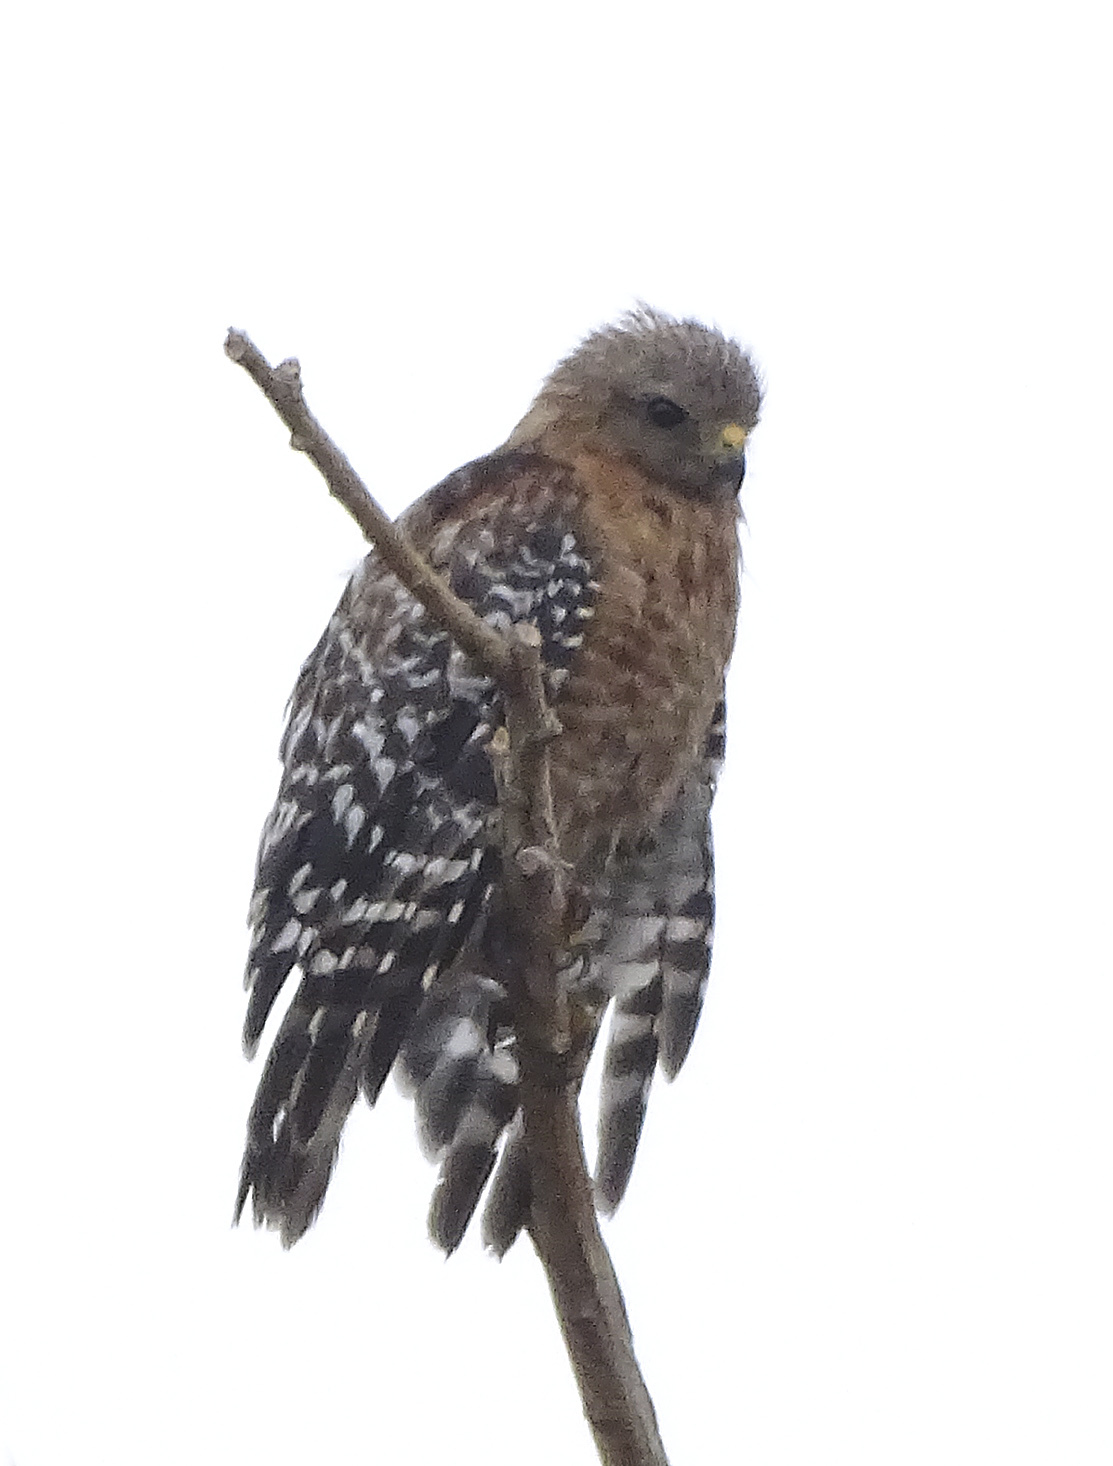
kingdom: Animalia
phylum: Chordata
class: Aves
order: Accipitriformes
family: Accipitridae
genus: Buteo
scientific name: Buteo lineatus
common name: Red-shouldered hawk
